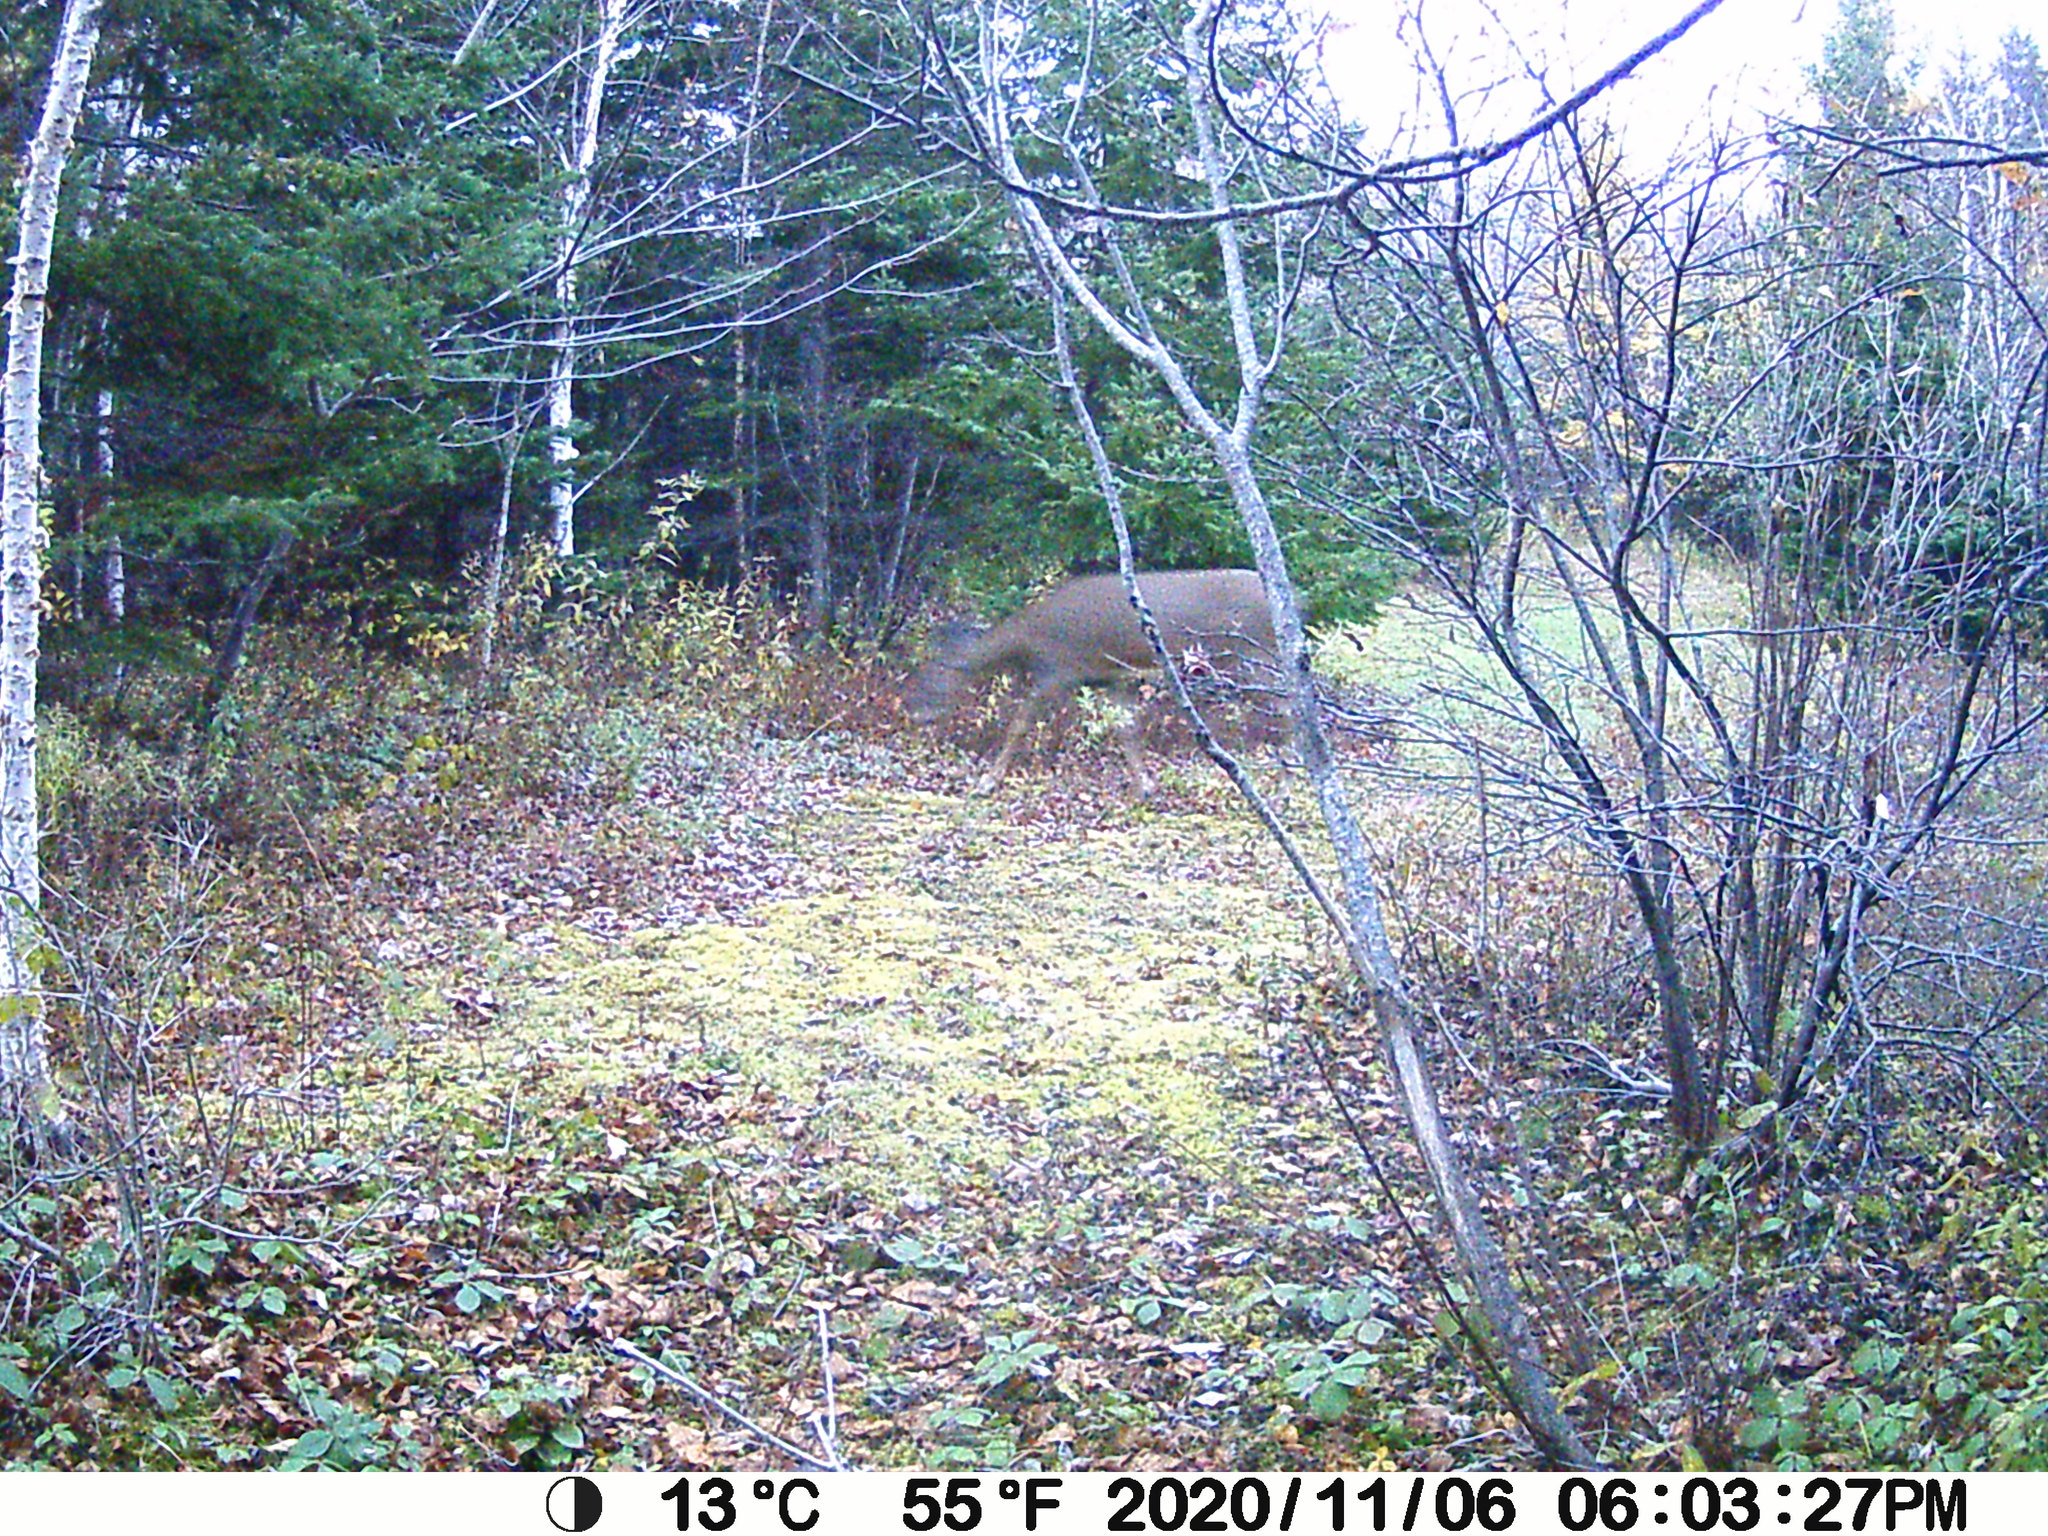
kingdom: Animalia
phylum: Chordata
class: Mammalia
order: Artiodactyla
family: Cervidae
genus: Odocoileus
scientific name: Odocoileus virginianus
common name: White-tailed deer
